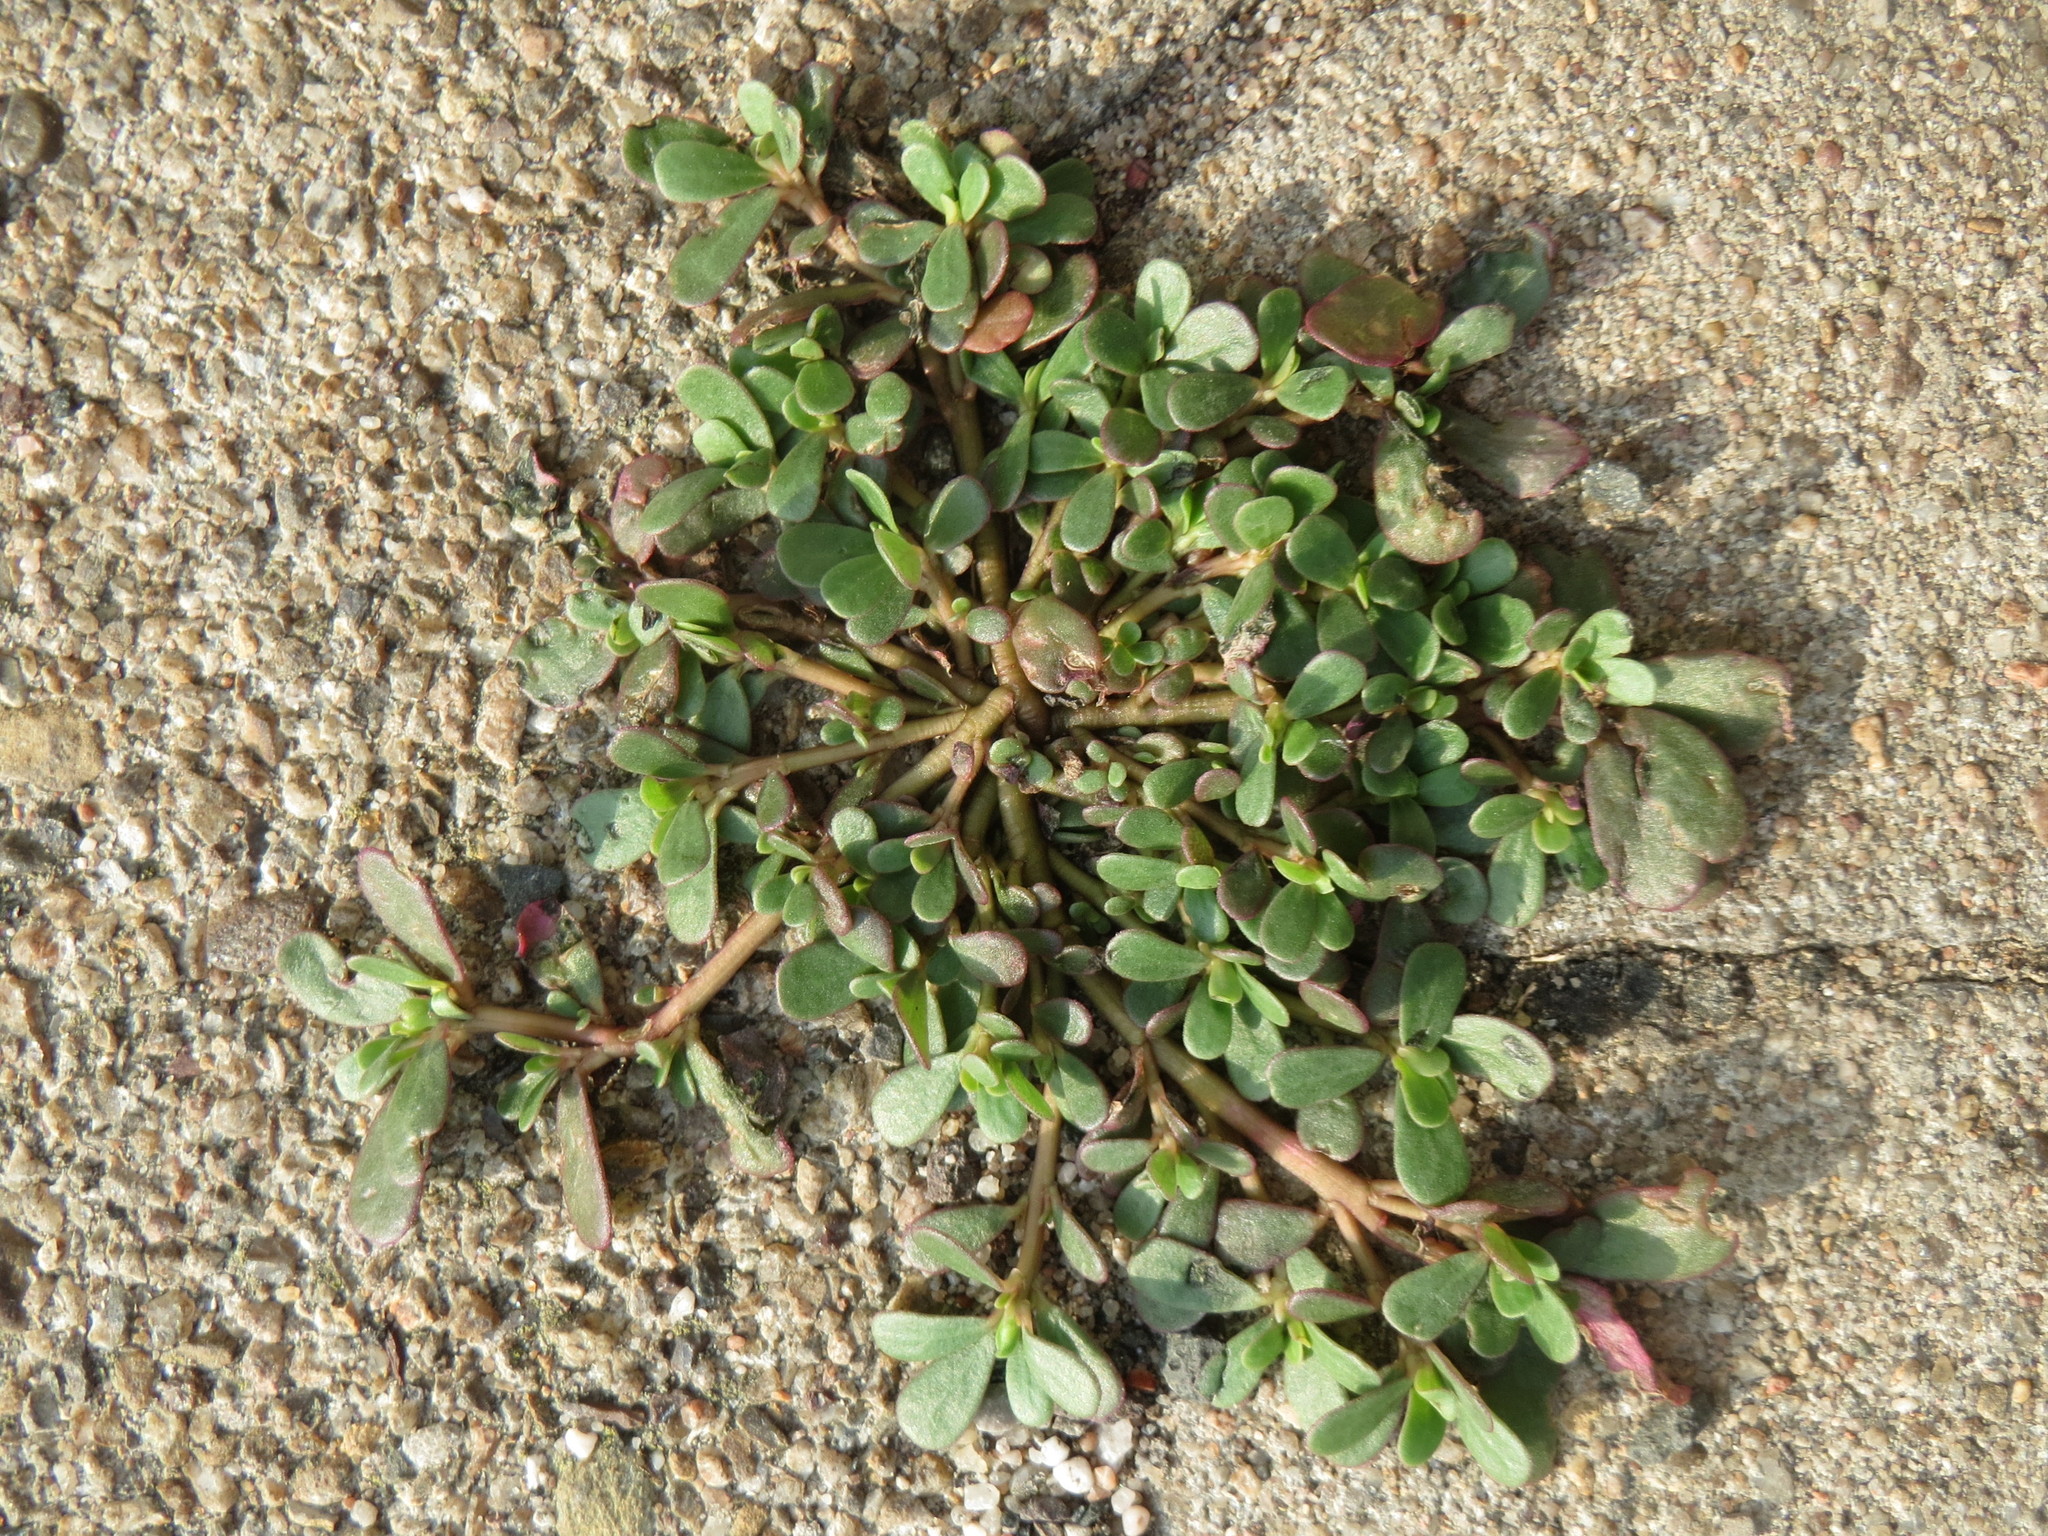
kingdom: Plantae
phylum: Tracheophyta
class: Magnoliopsida
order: Caryophyllales
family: Portulacaceae
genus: Portulaca
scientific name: Portulaca oleracea
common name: Common purslane
